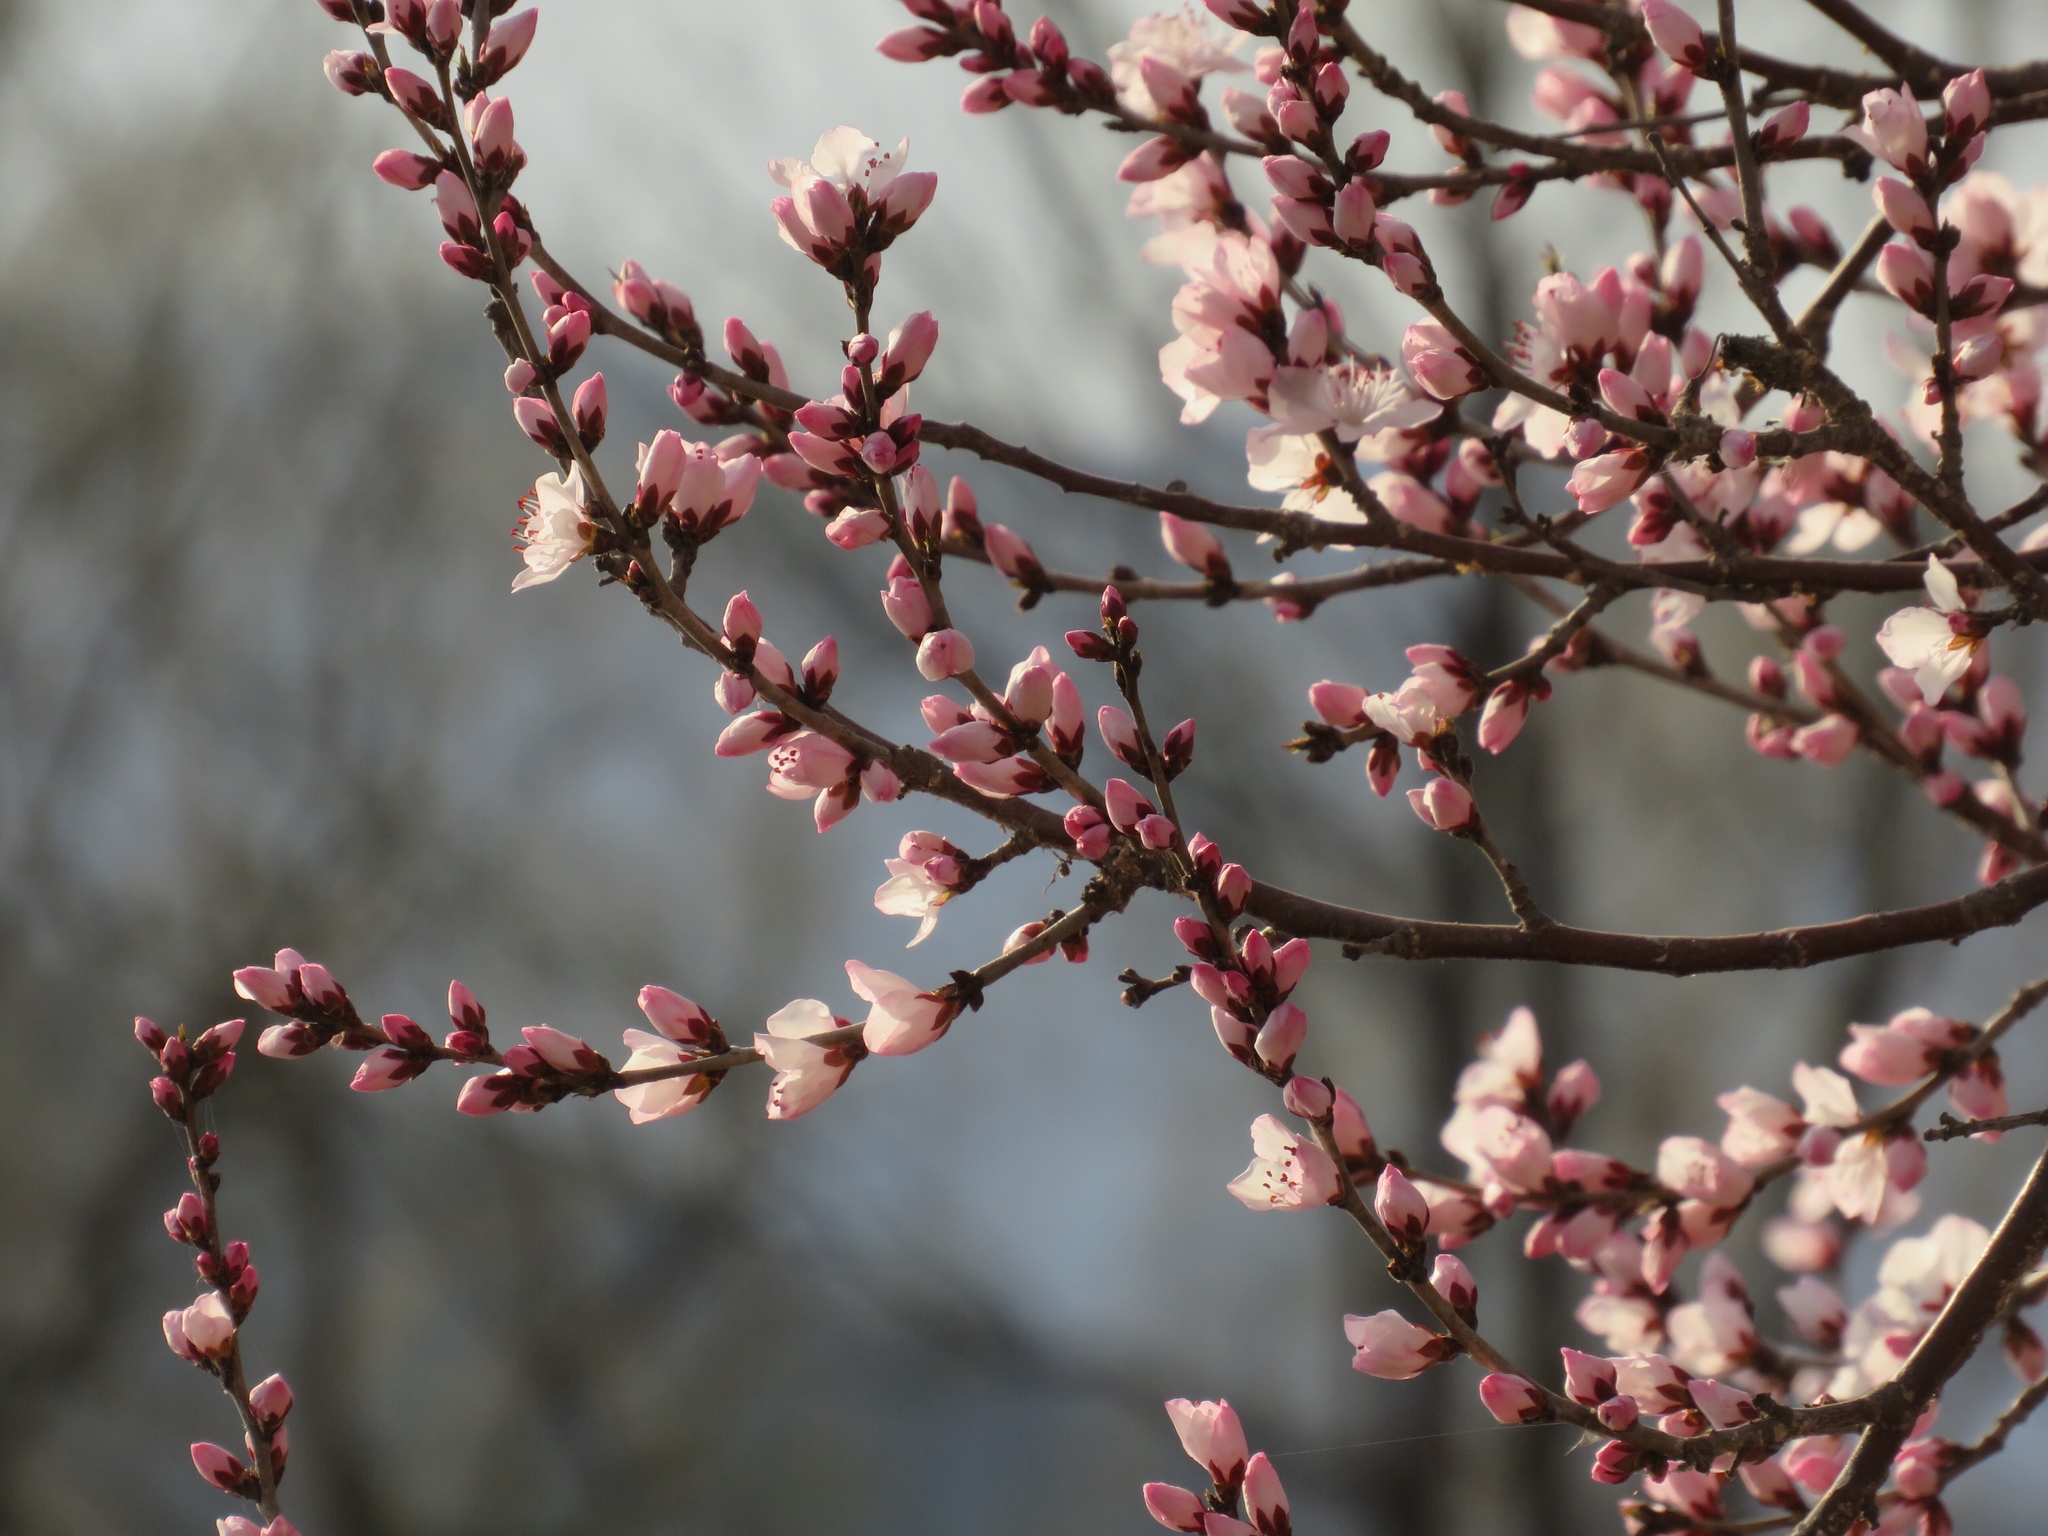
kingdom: Plantae
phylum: Tracheophyta
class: Magnoliopsida
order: Rosales
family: Rosaceae
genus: Prunus
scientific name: Prunus davidiana
